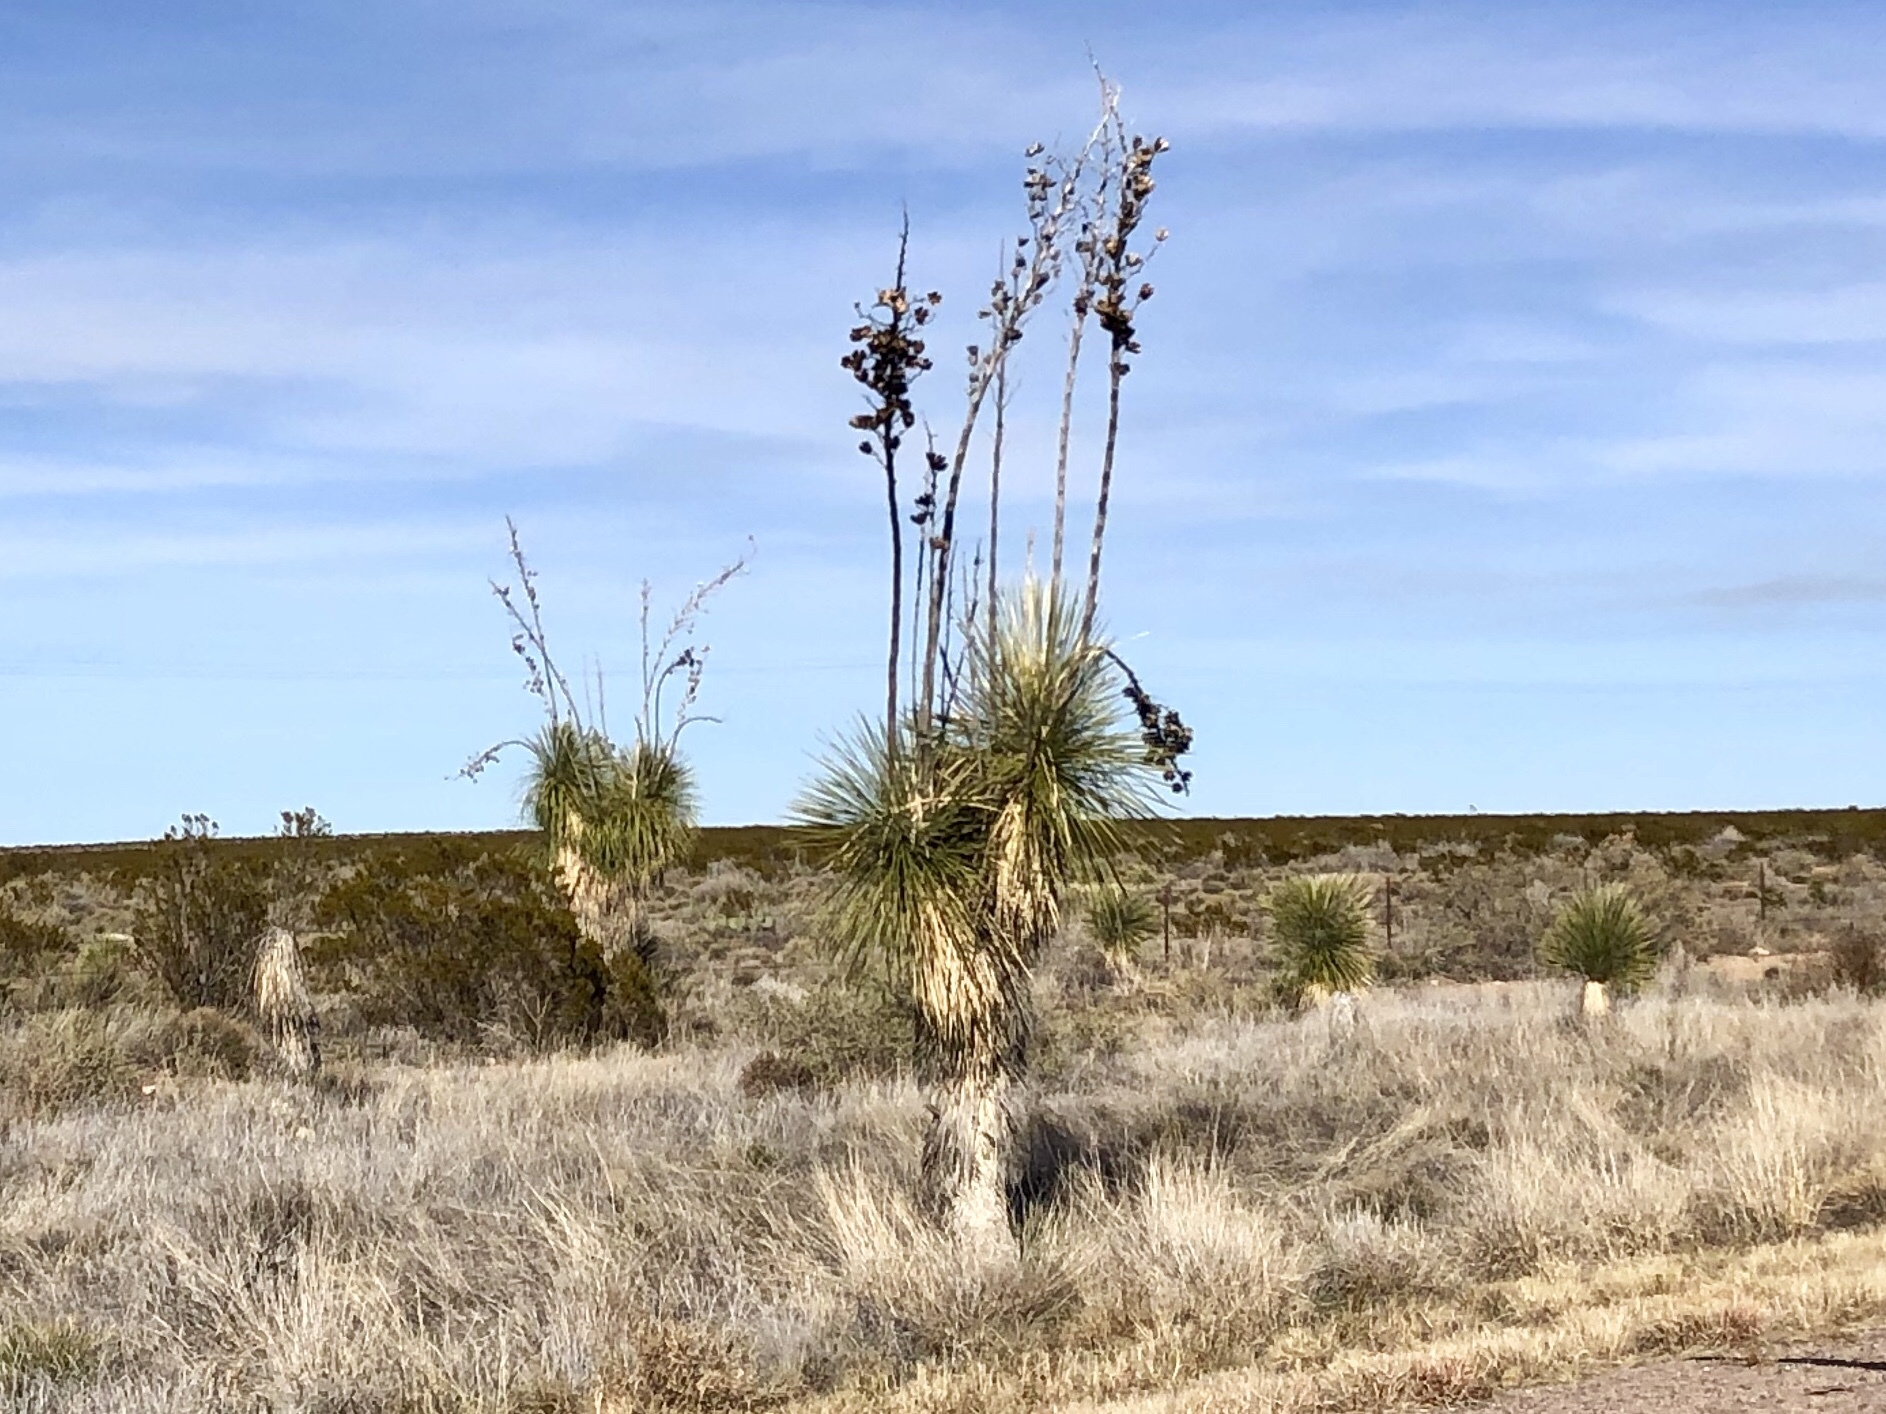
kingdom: Plantae
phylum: Tracheophyta
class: Liliopsida
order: Asparagales
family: Asparagaceae
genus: Yucca
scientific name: Yucca elata
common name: Palmella
